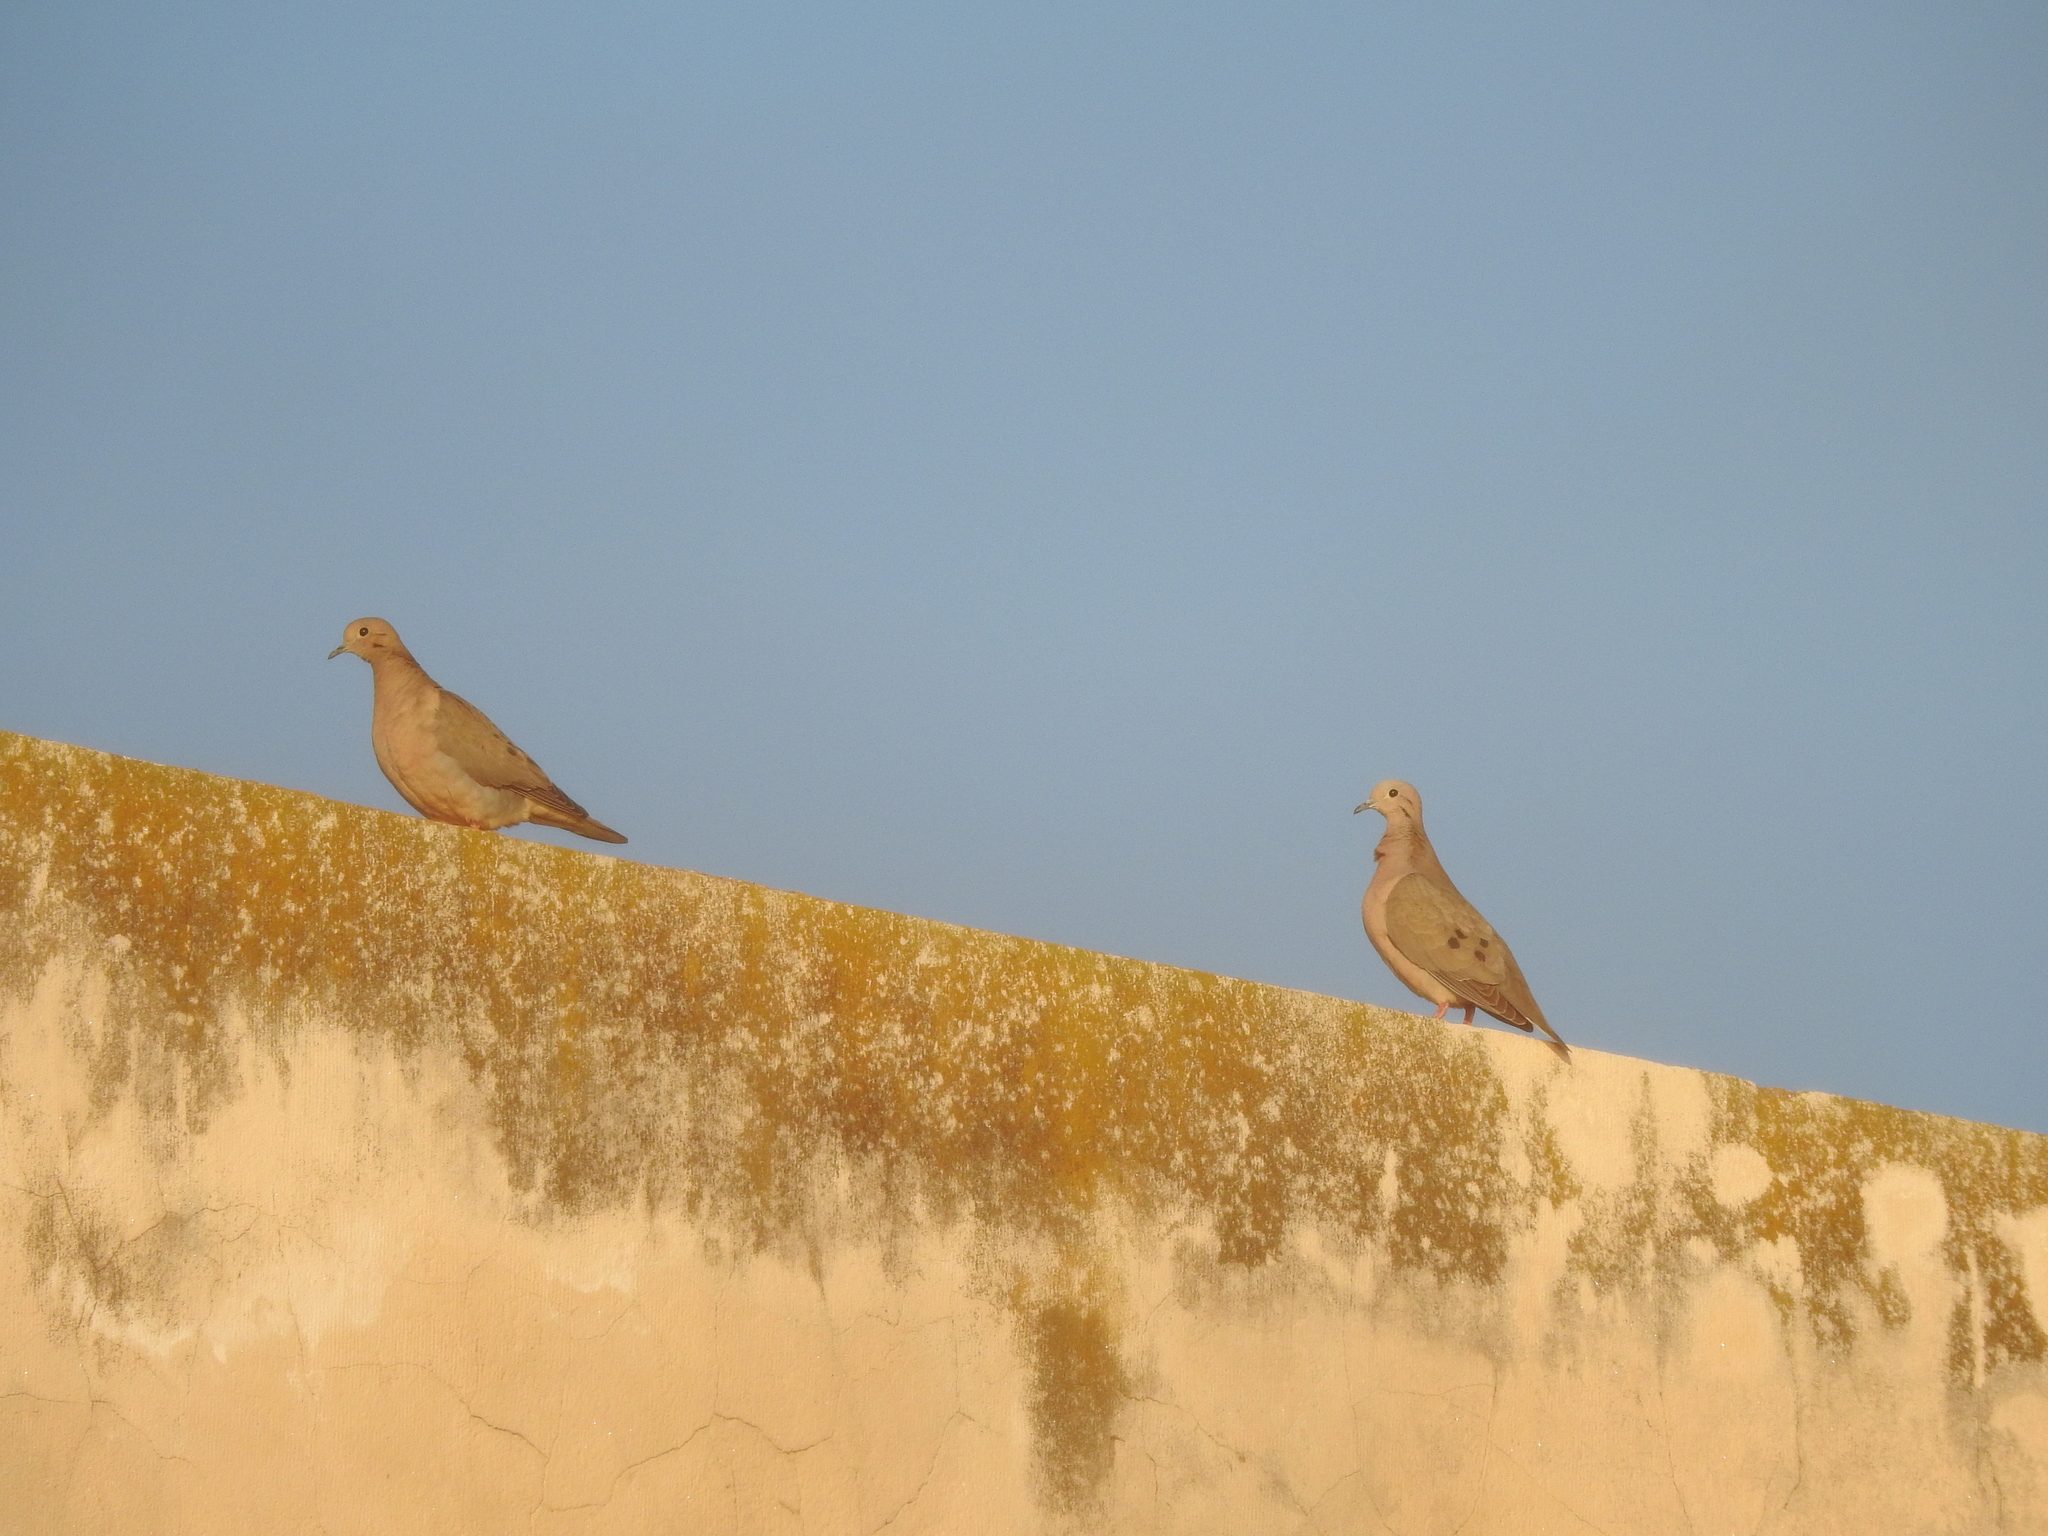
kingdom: Animalia
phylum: Chordata
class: Aves
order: Columbiformes
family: Columbidae
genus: Zenaida
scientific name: Zenaida auriculata
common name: Eared dove
